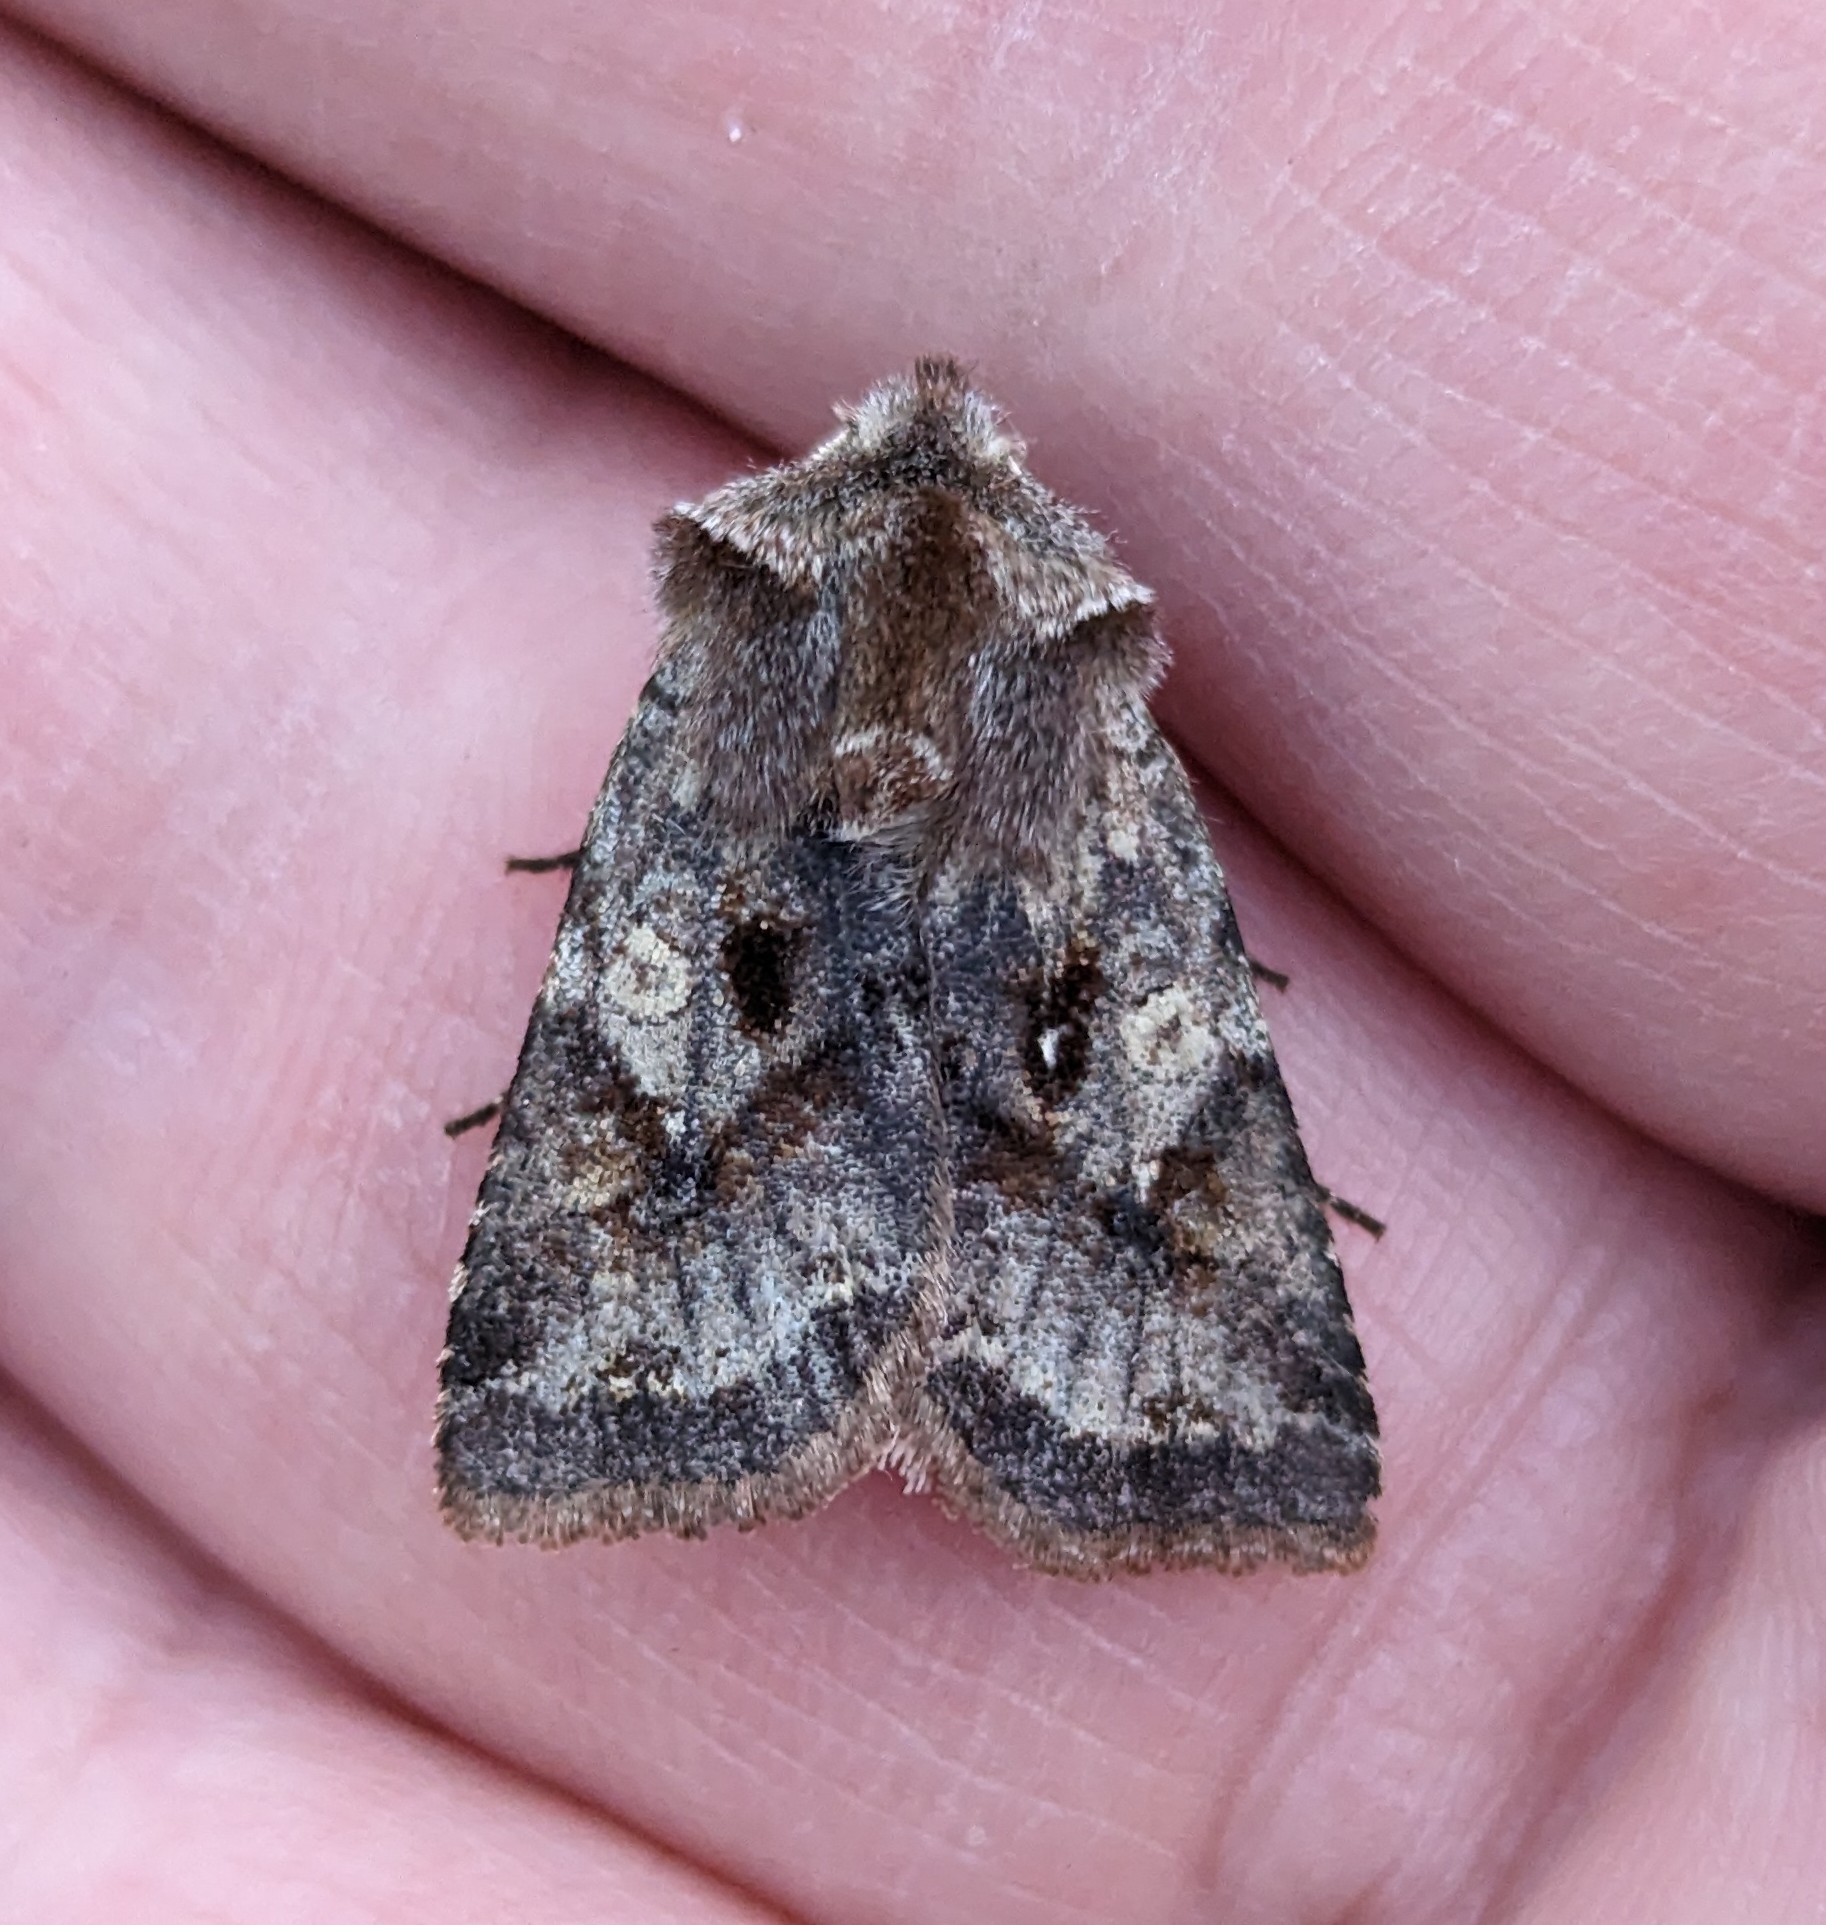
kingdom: Animalia
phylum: Arthropoda
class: Insecta
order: Lepidoptera
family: Noctuidae
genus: Cerastis
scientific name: Cerastis salicarum
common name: Willow dart
